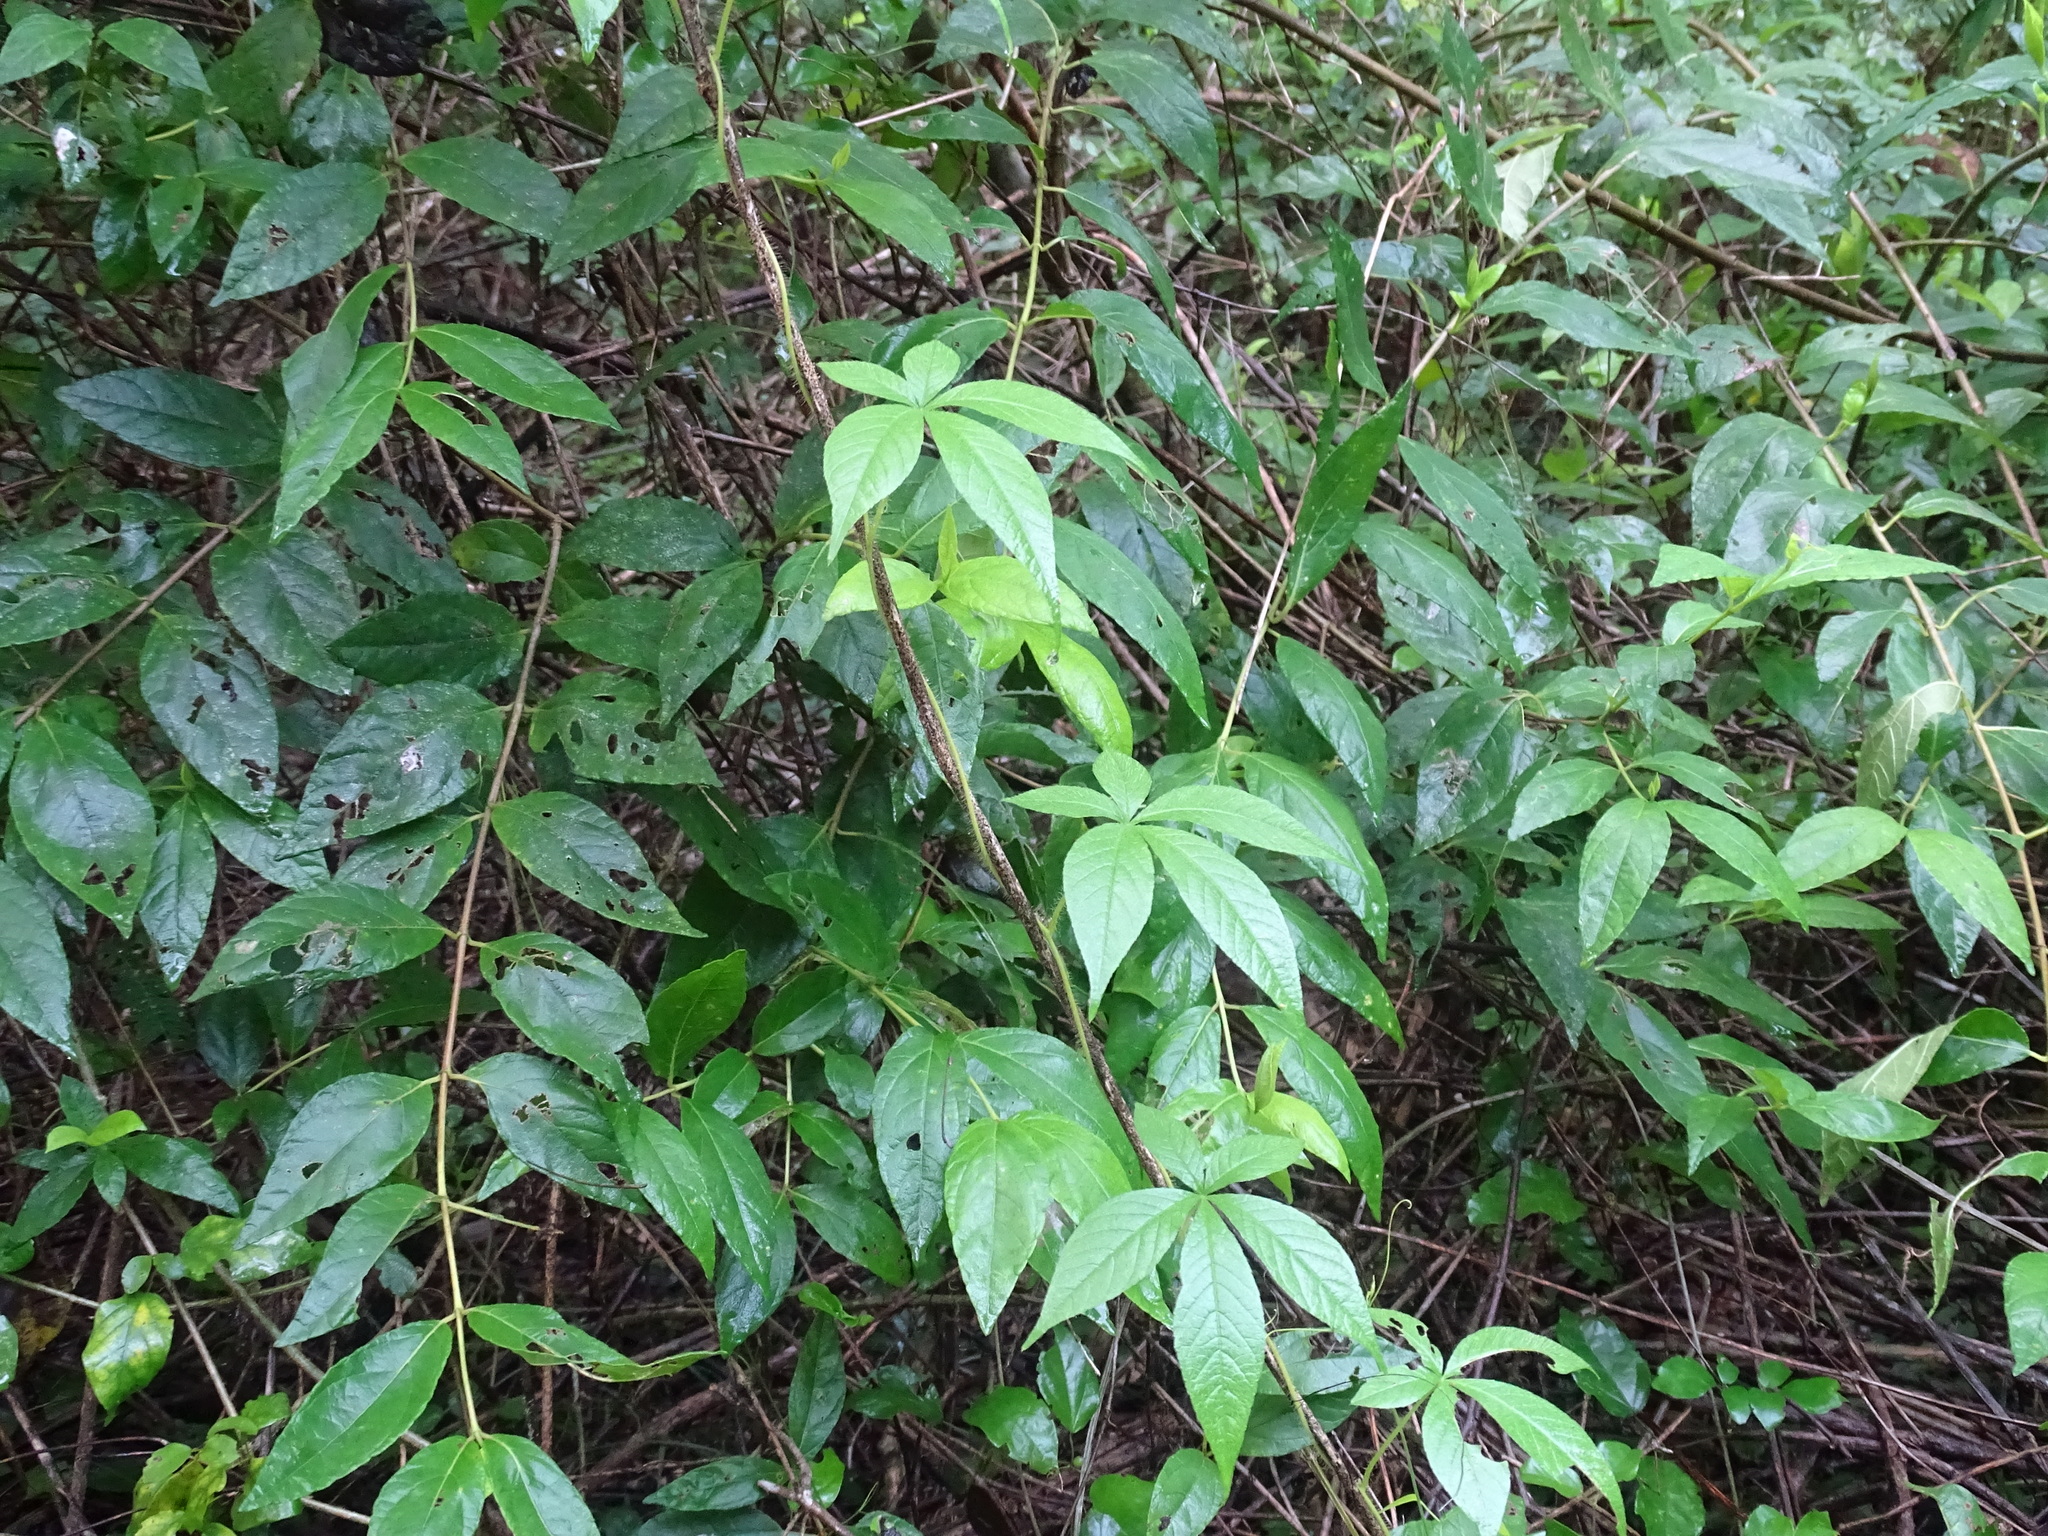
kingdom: Plantae
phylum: Tracheophyta
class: Magnoliopsida
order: Solanales
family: Convolvulaceae
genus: Distimake
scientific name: Distimake aegyptius
